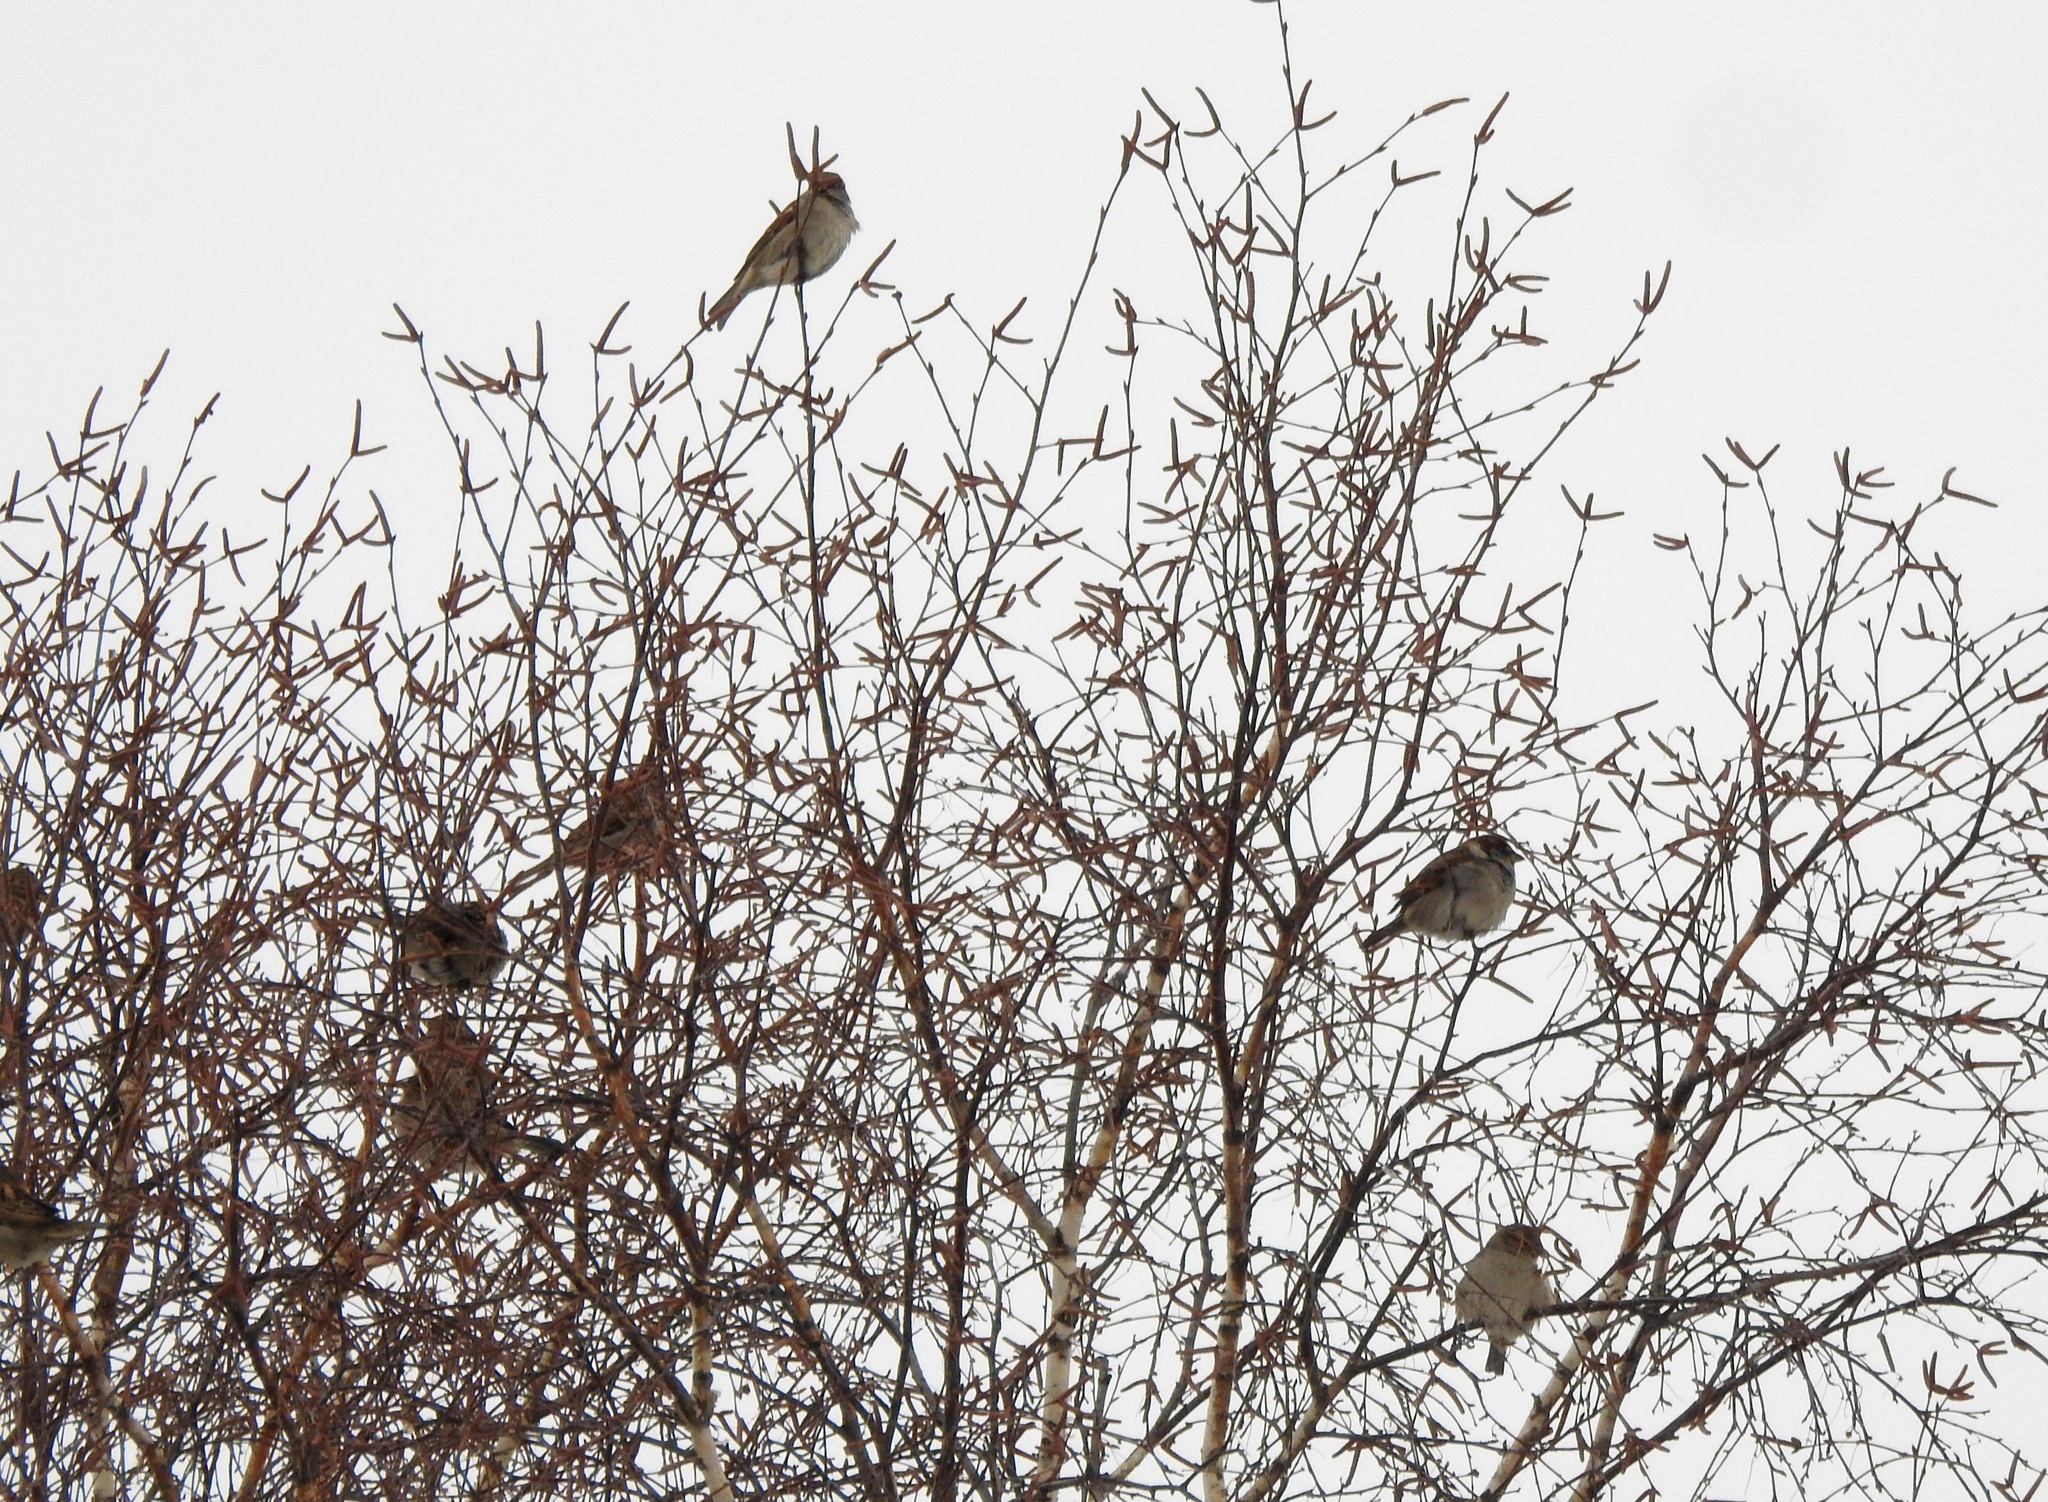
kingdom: Animalia
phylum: Chordata
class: Aves
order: Passeriformes
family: Passeridae
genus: Passer
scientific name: Passer domesticus
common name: House sparrow
